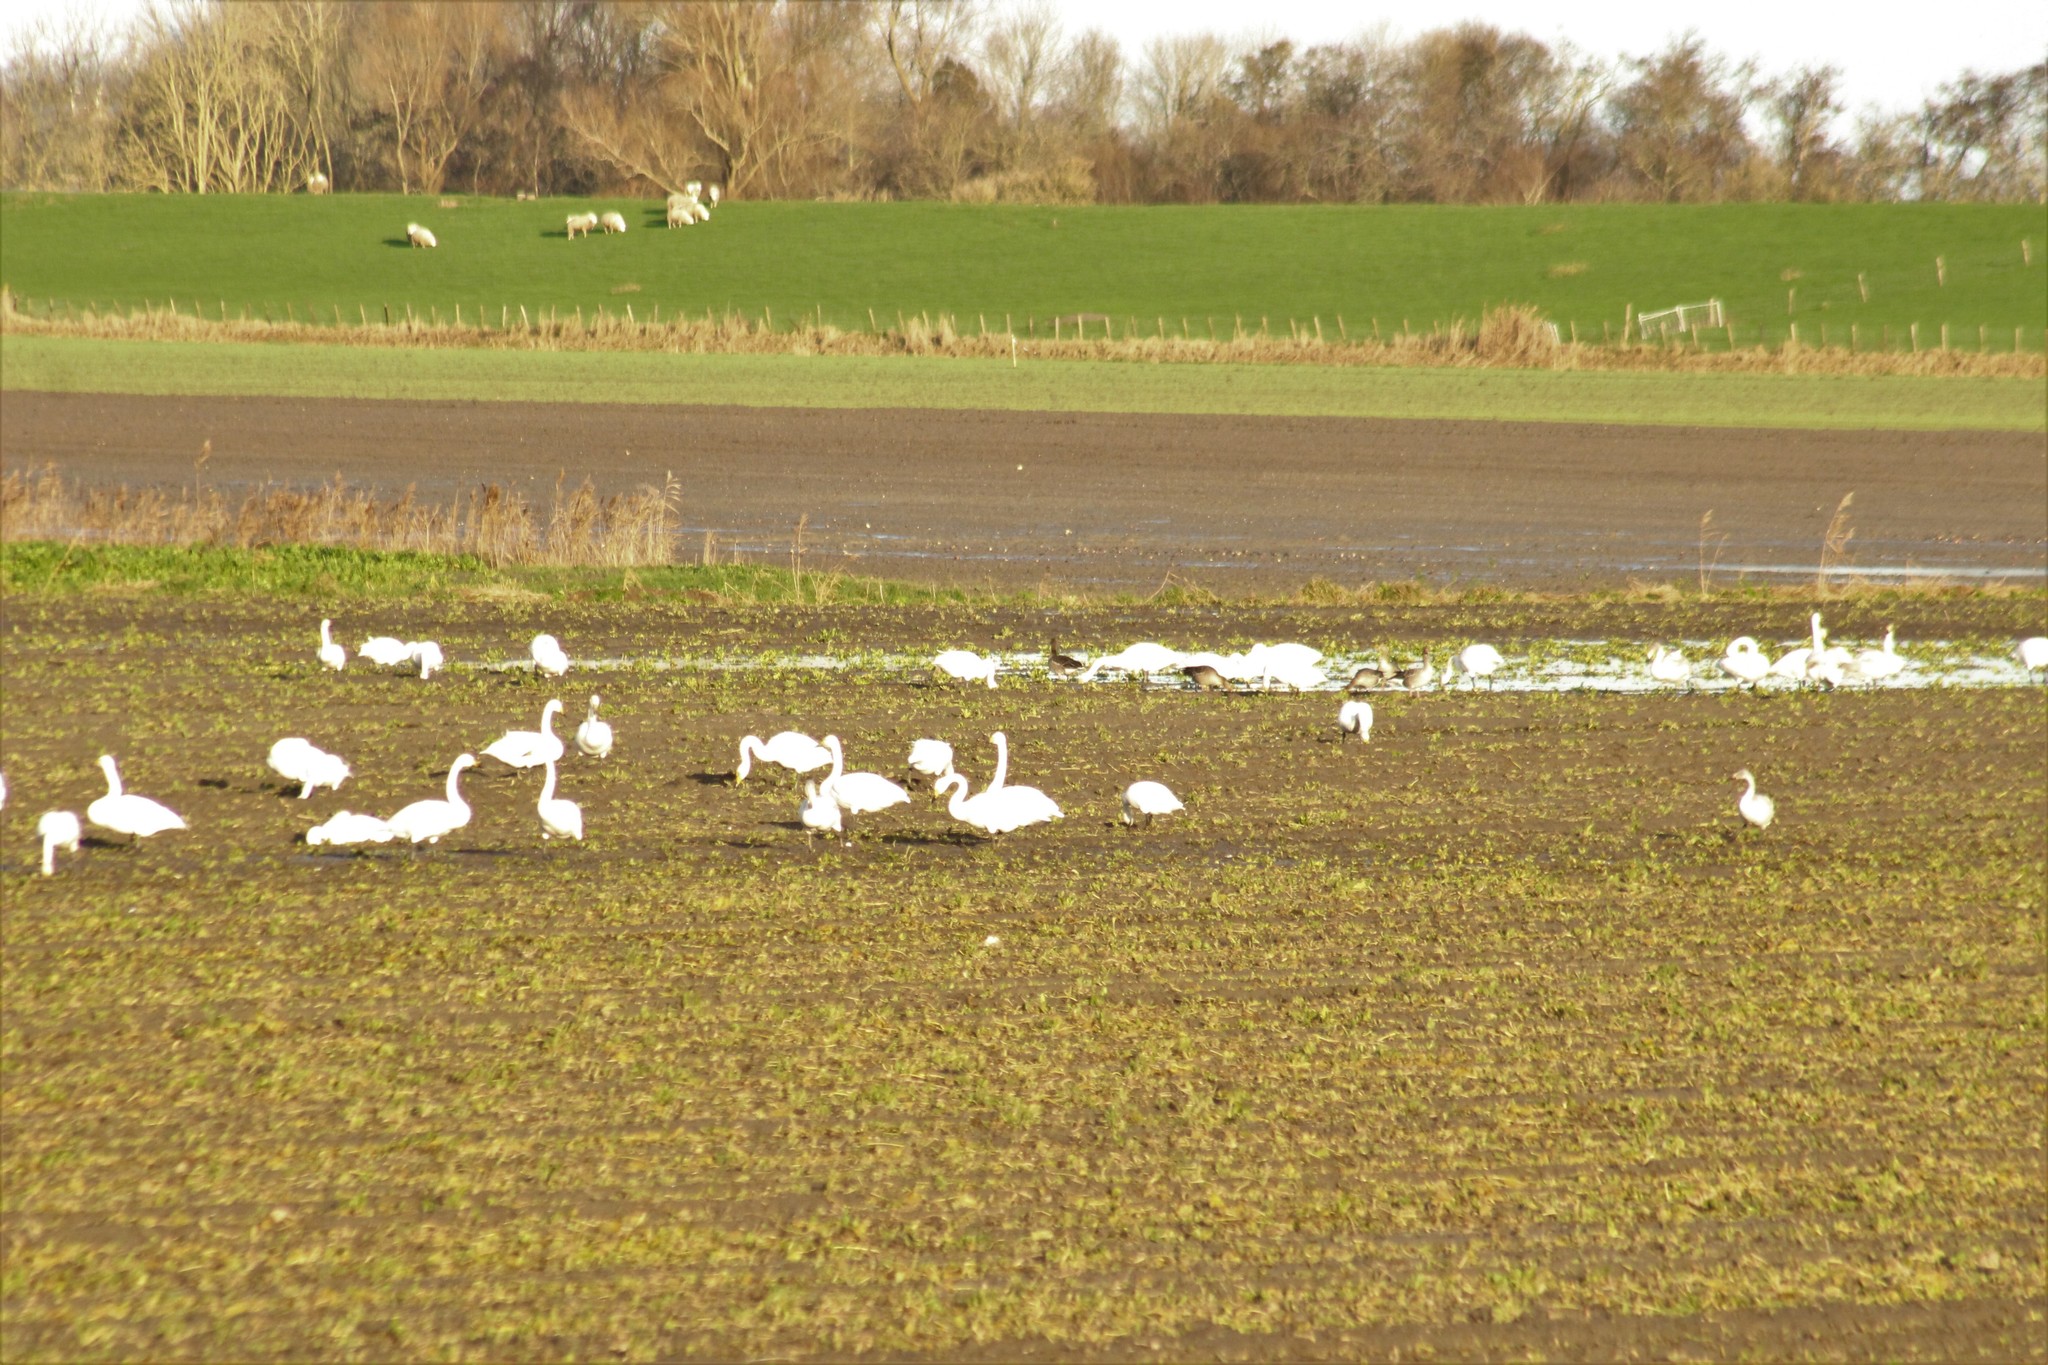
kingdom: Animalia
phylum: Chordata
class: Aves
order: Anseriformes
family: Anatidae
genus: Cygnus
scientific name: Cygnus columbianus
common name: Tundra swan
